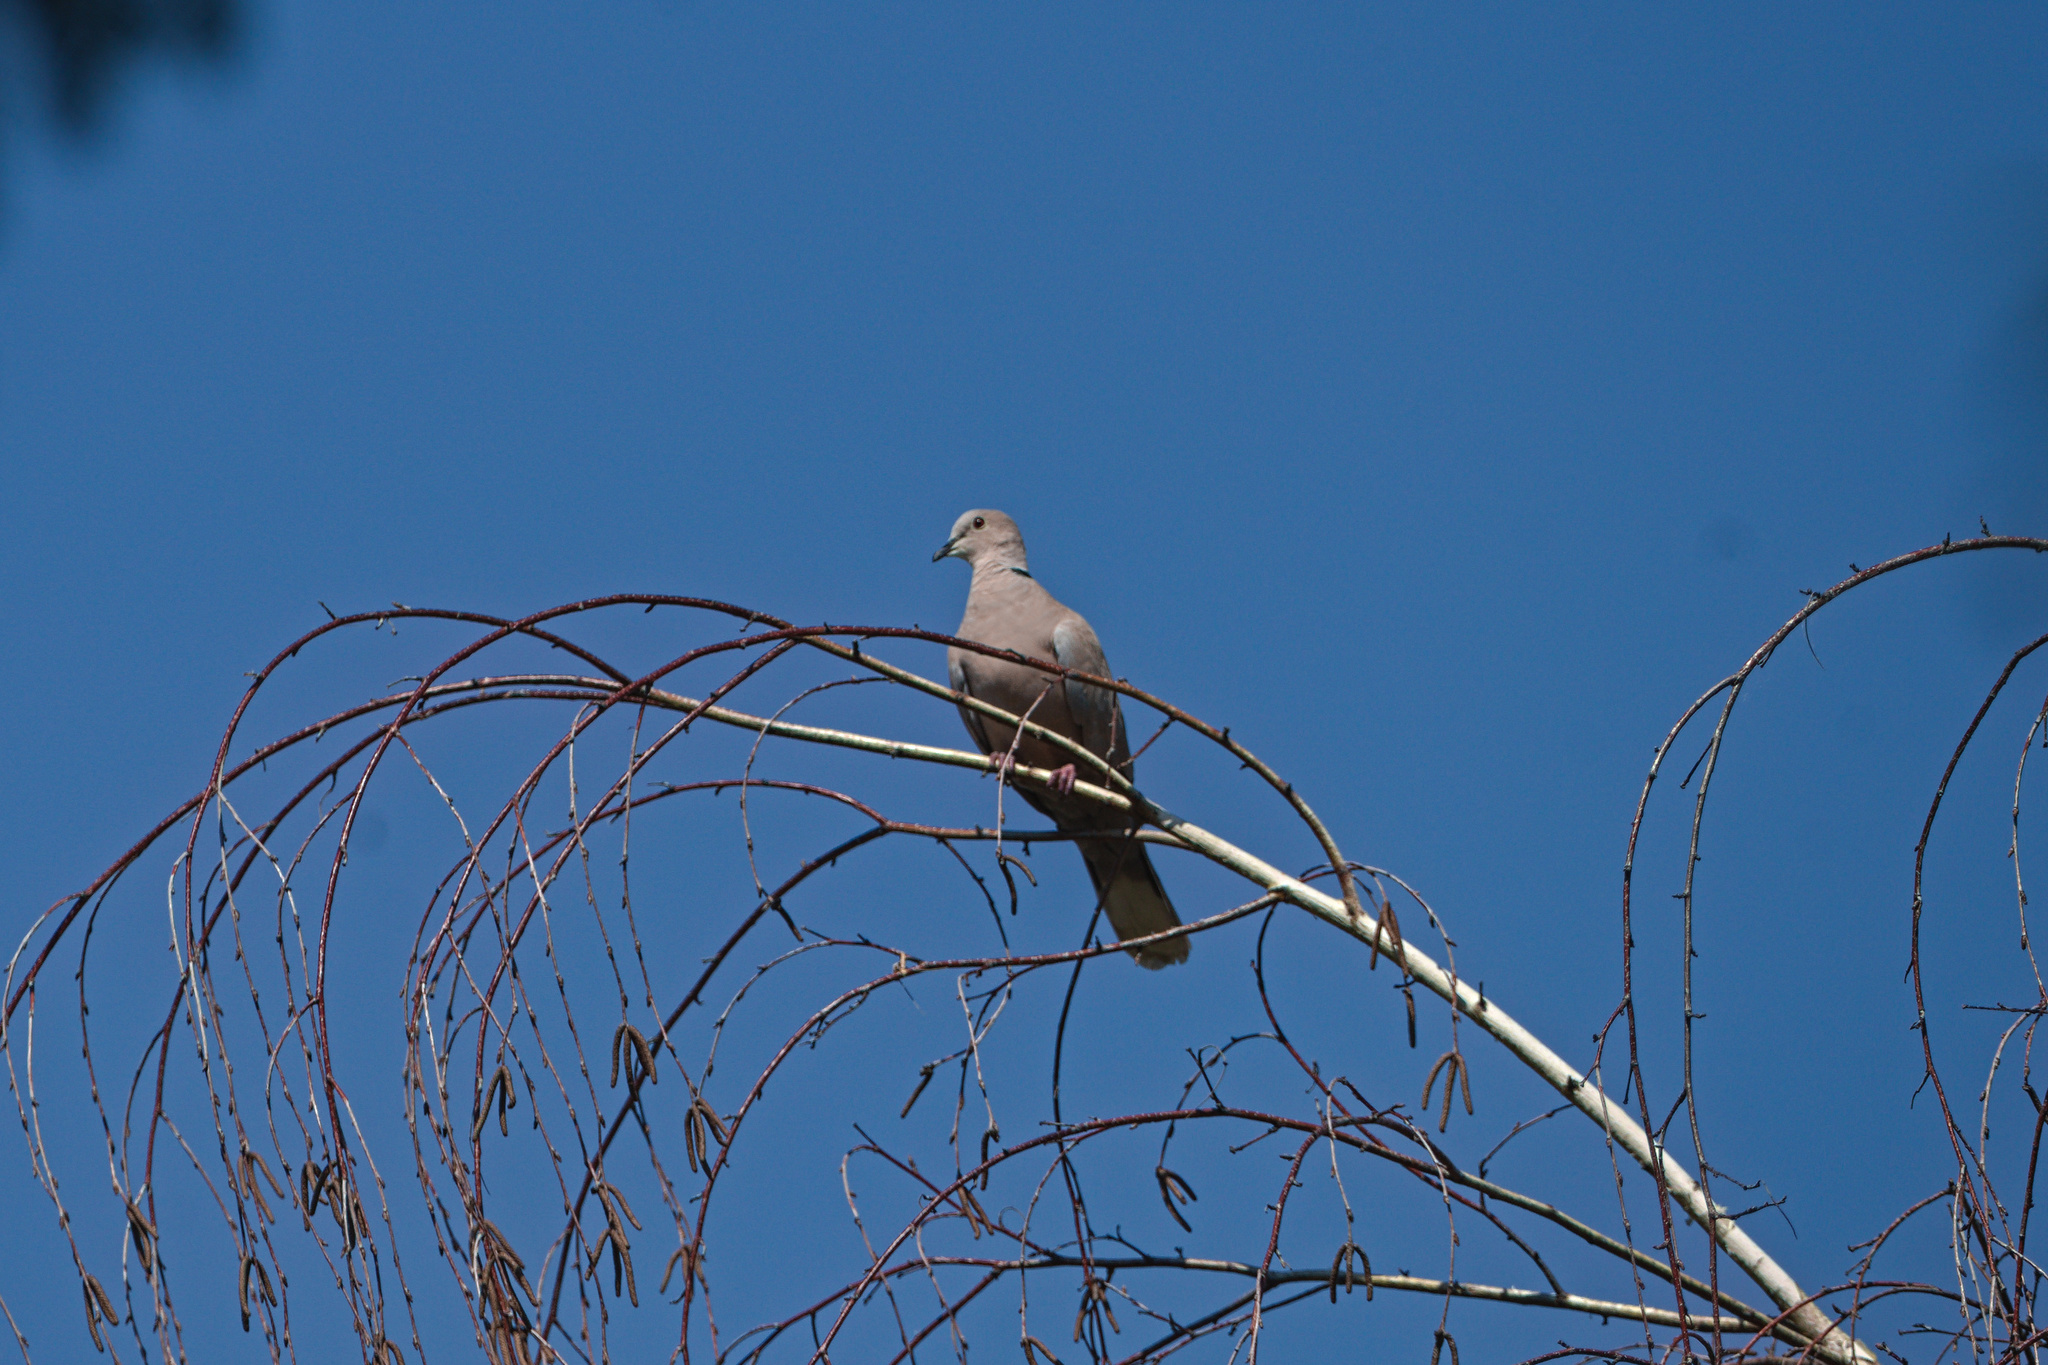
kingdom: Animalia
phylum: Chordata
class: Aves
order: Columbiformes
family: Columbidae
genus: Streptopelia
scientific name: Streptopelia decaocto
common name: Eurasian collared dove
